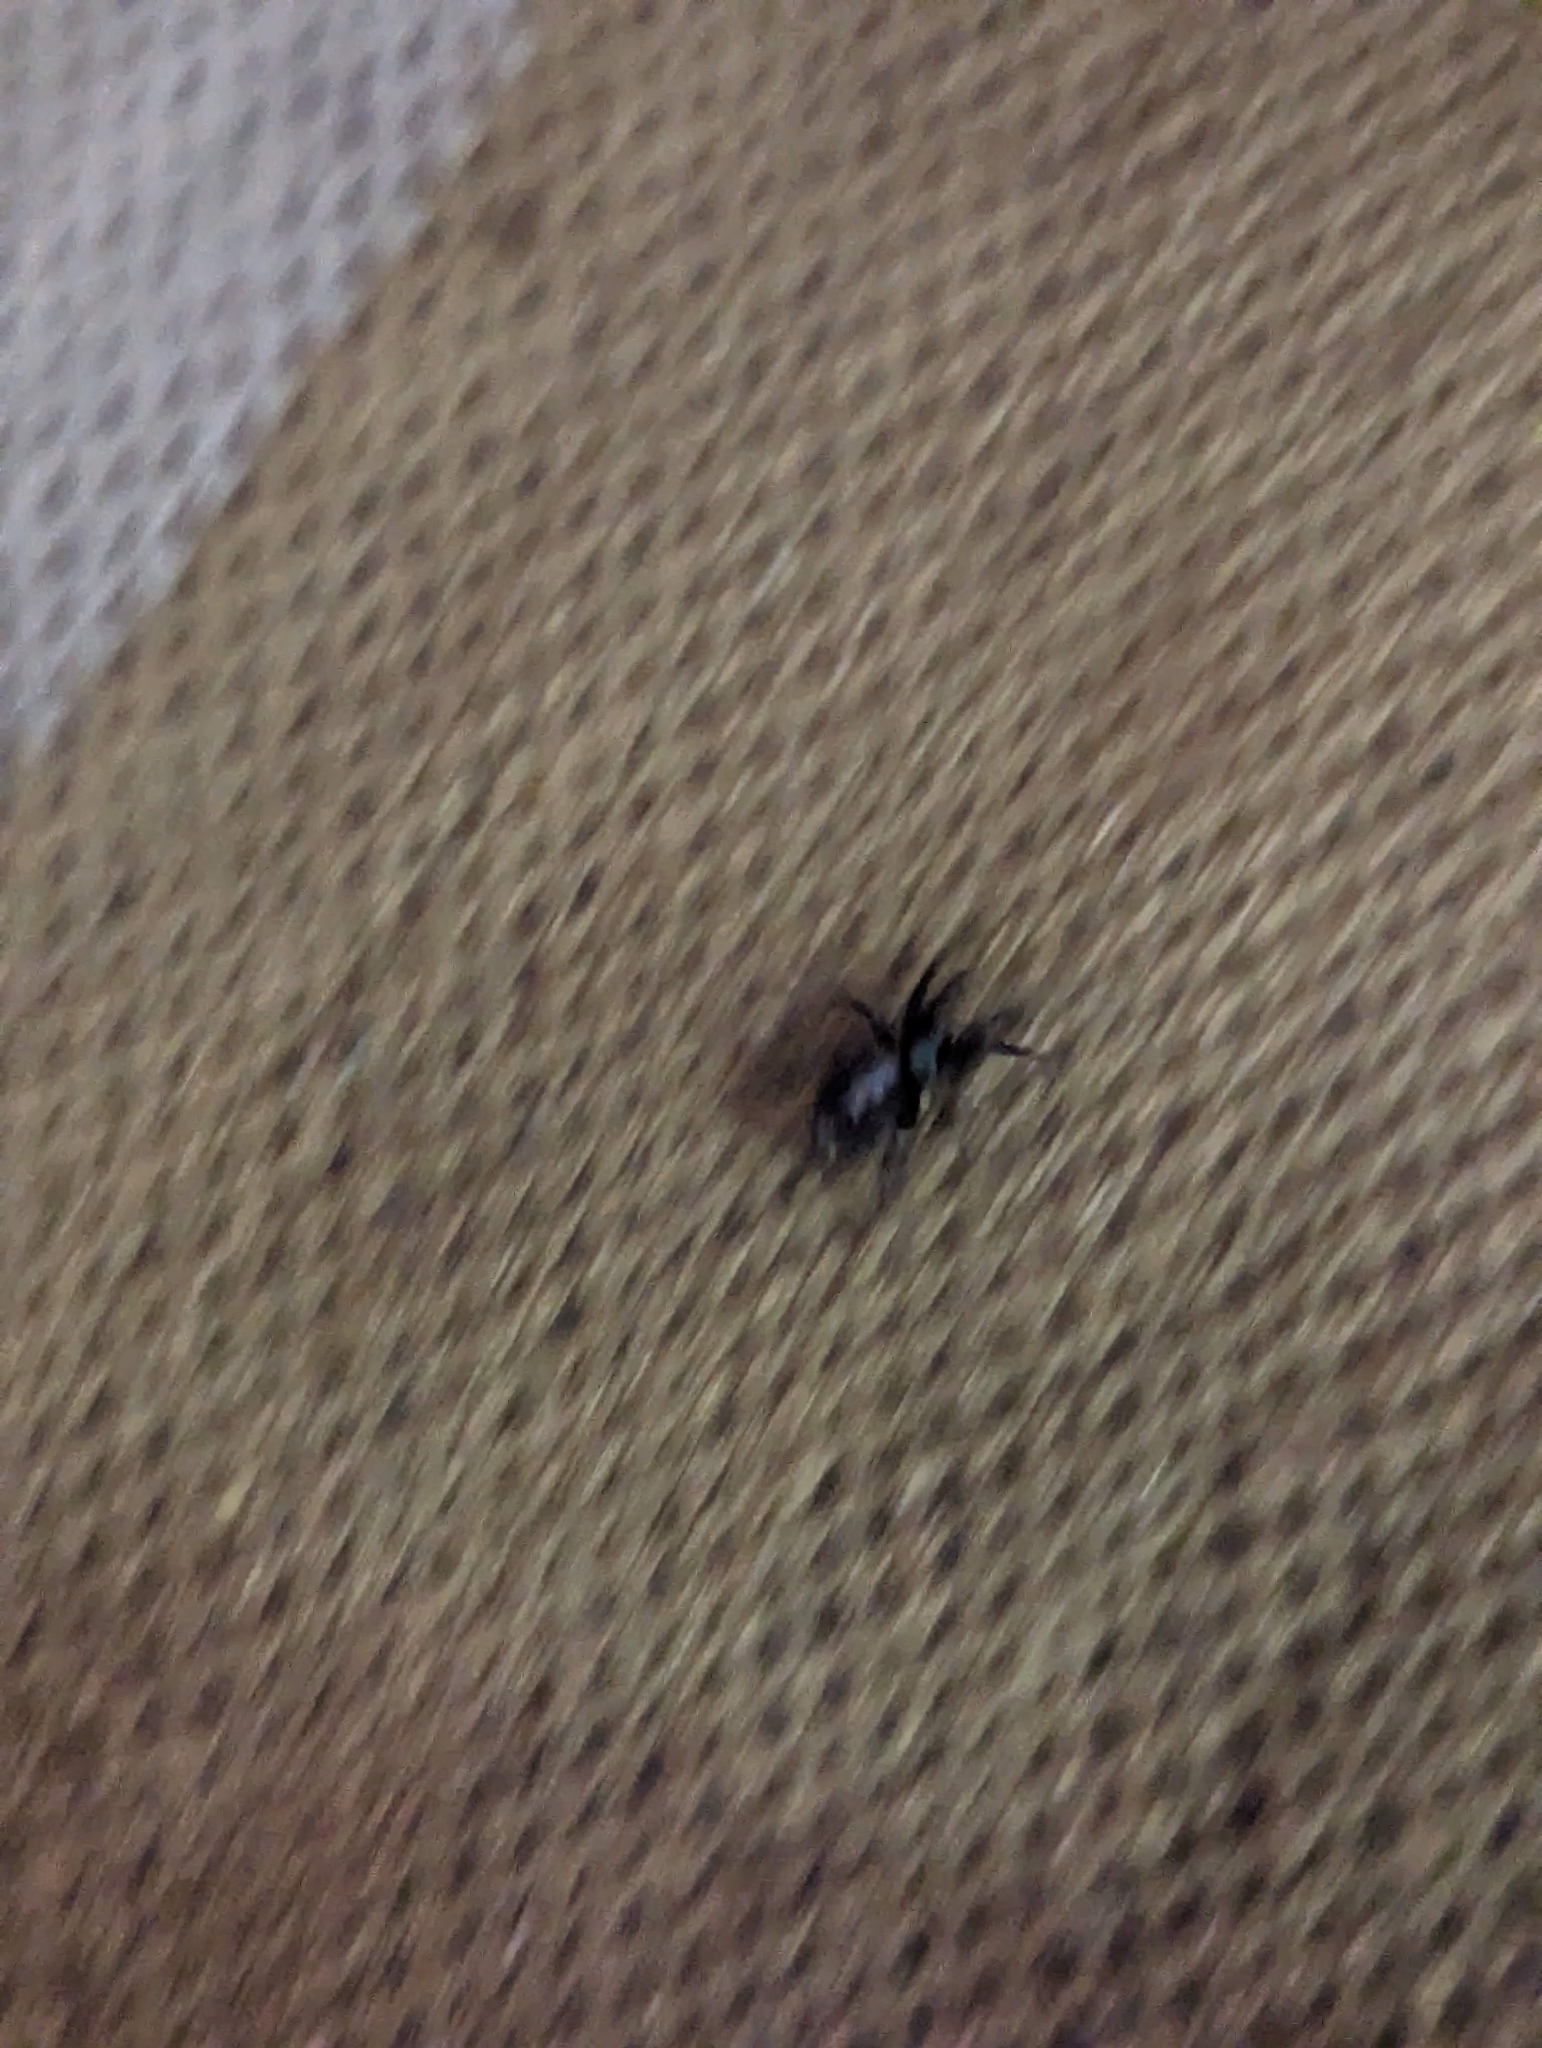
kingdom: Animalia
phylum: Arthropoda
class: Arachnida
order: Araneae
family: Gnaphosidae
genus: Herpyllus
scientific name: Herpyllus ecclesiasticus
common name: Eastern parson spider
